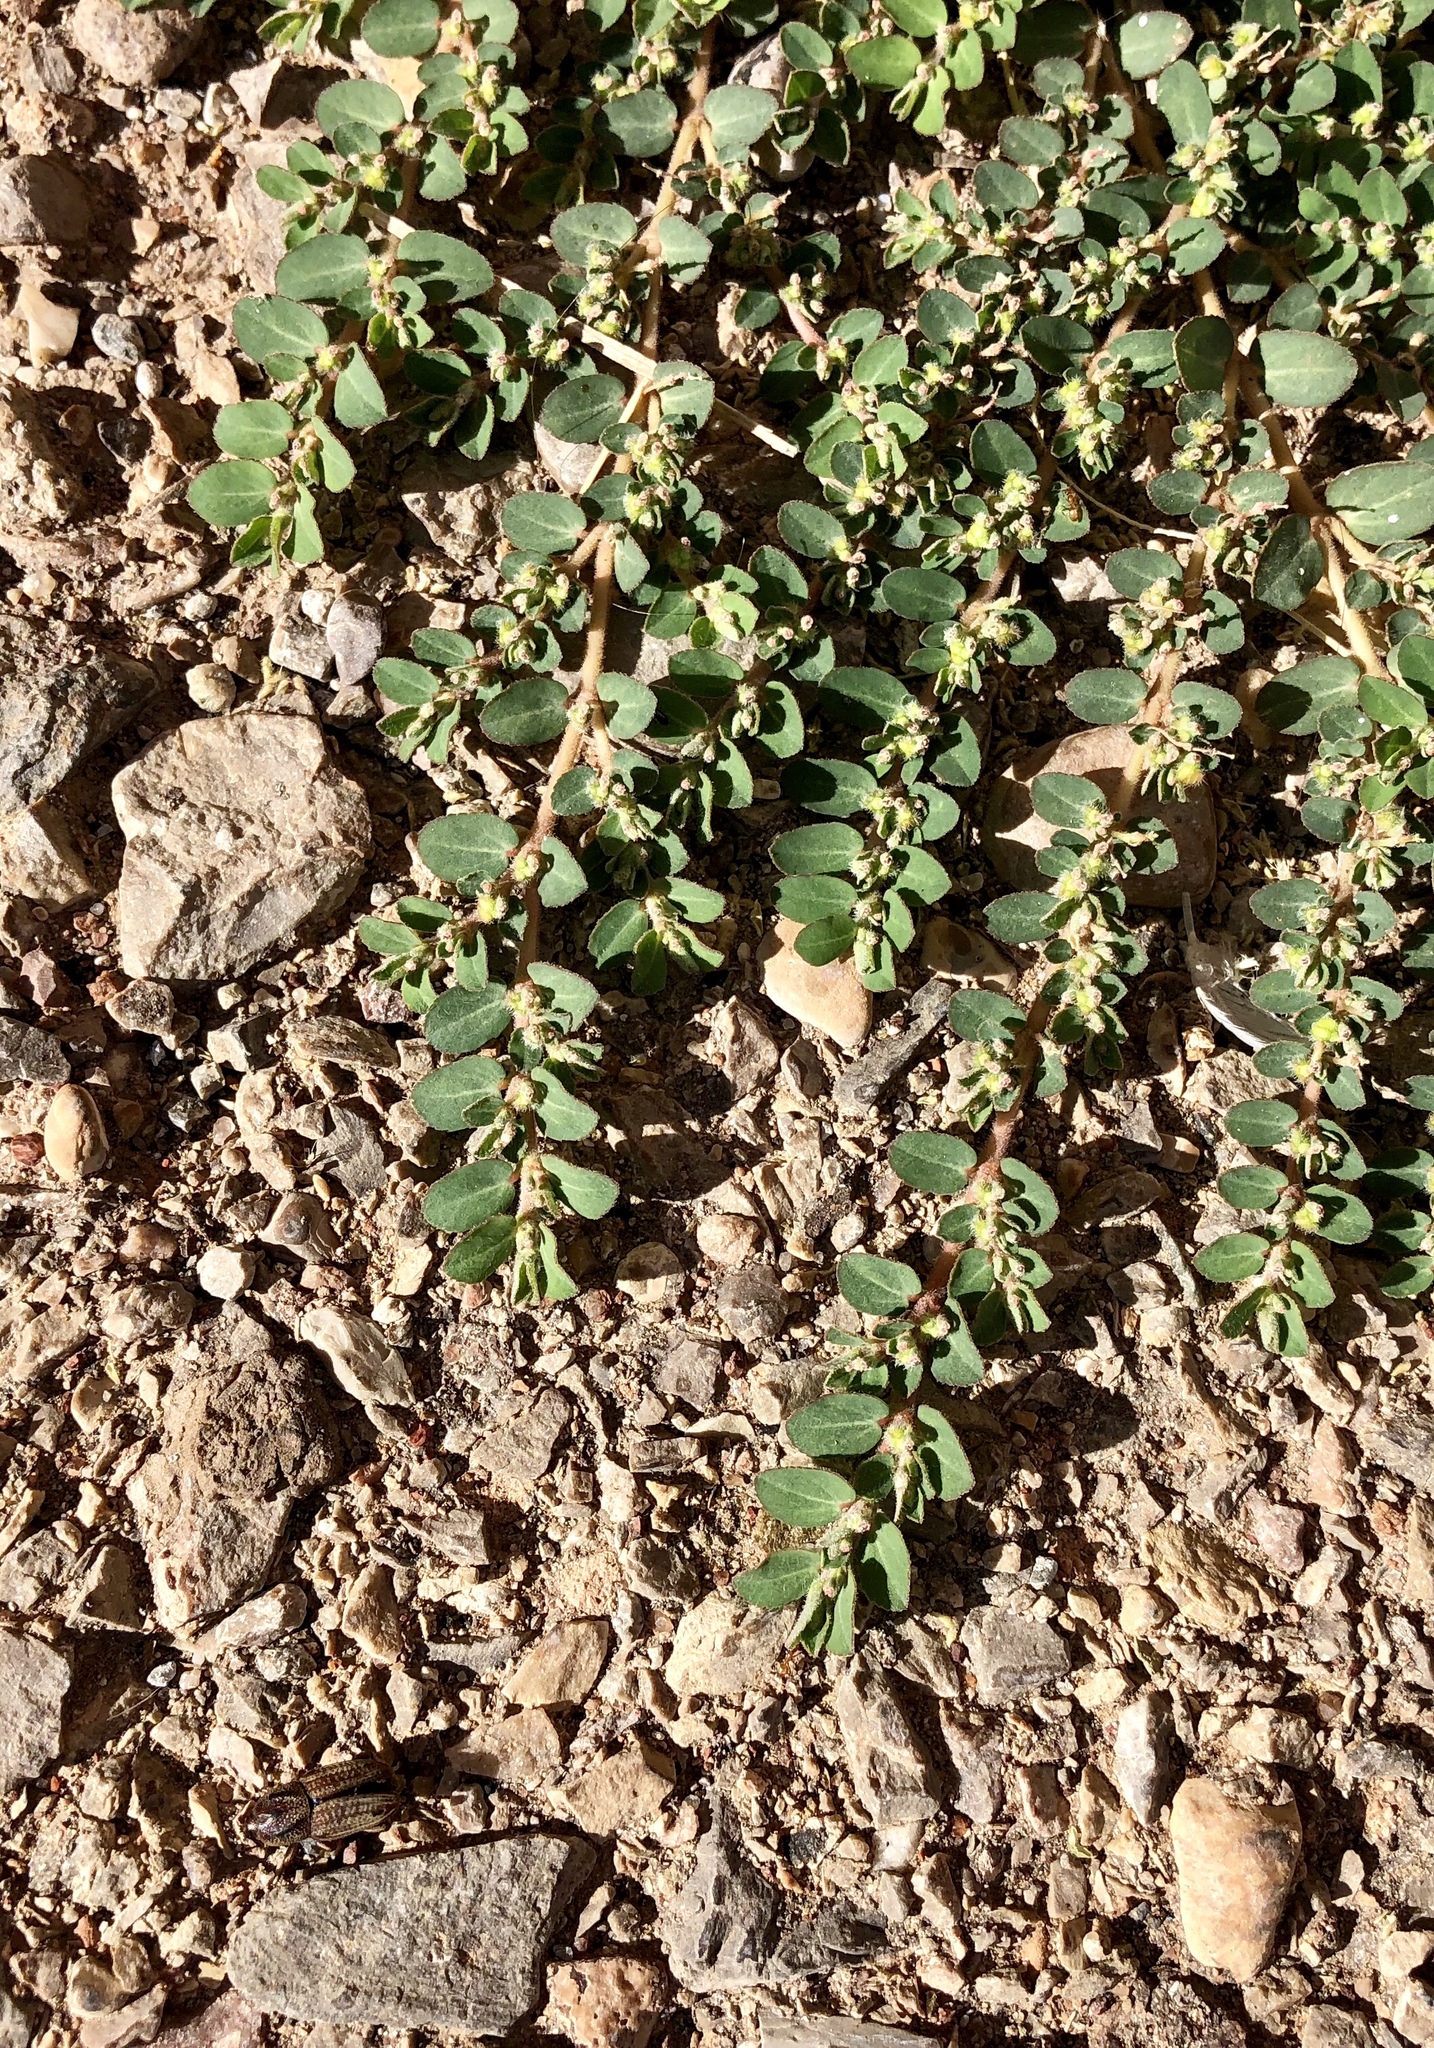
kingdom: Plantae
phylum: Tracheophyta
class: Magnoliopsida
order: Malpighiales
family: Euphorbiaceae
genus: Euphorbia
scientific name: Euphorbia prostrata
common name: Prostrate sandmat
